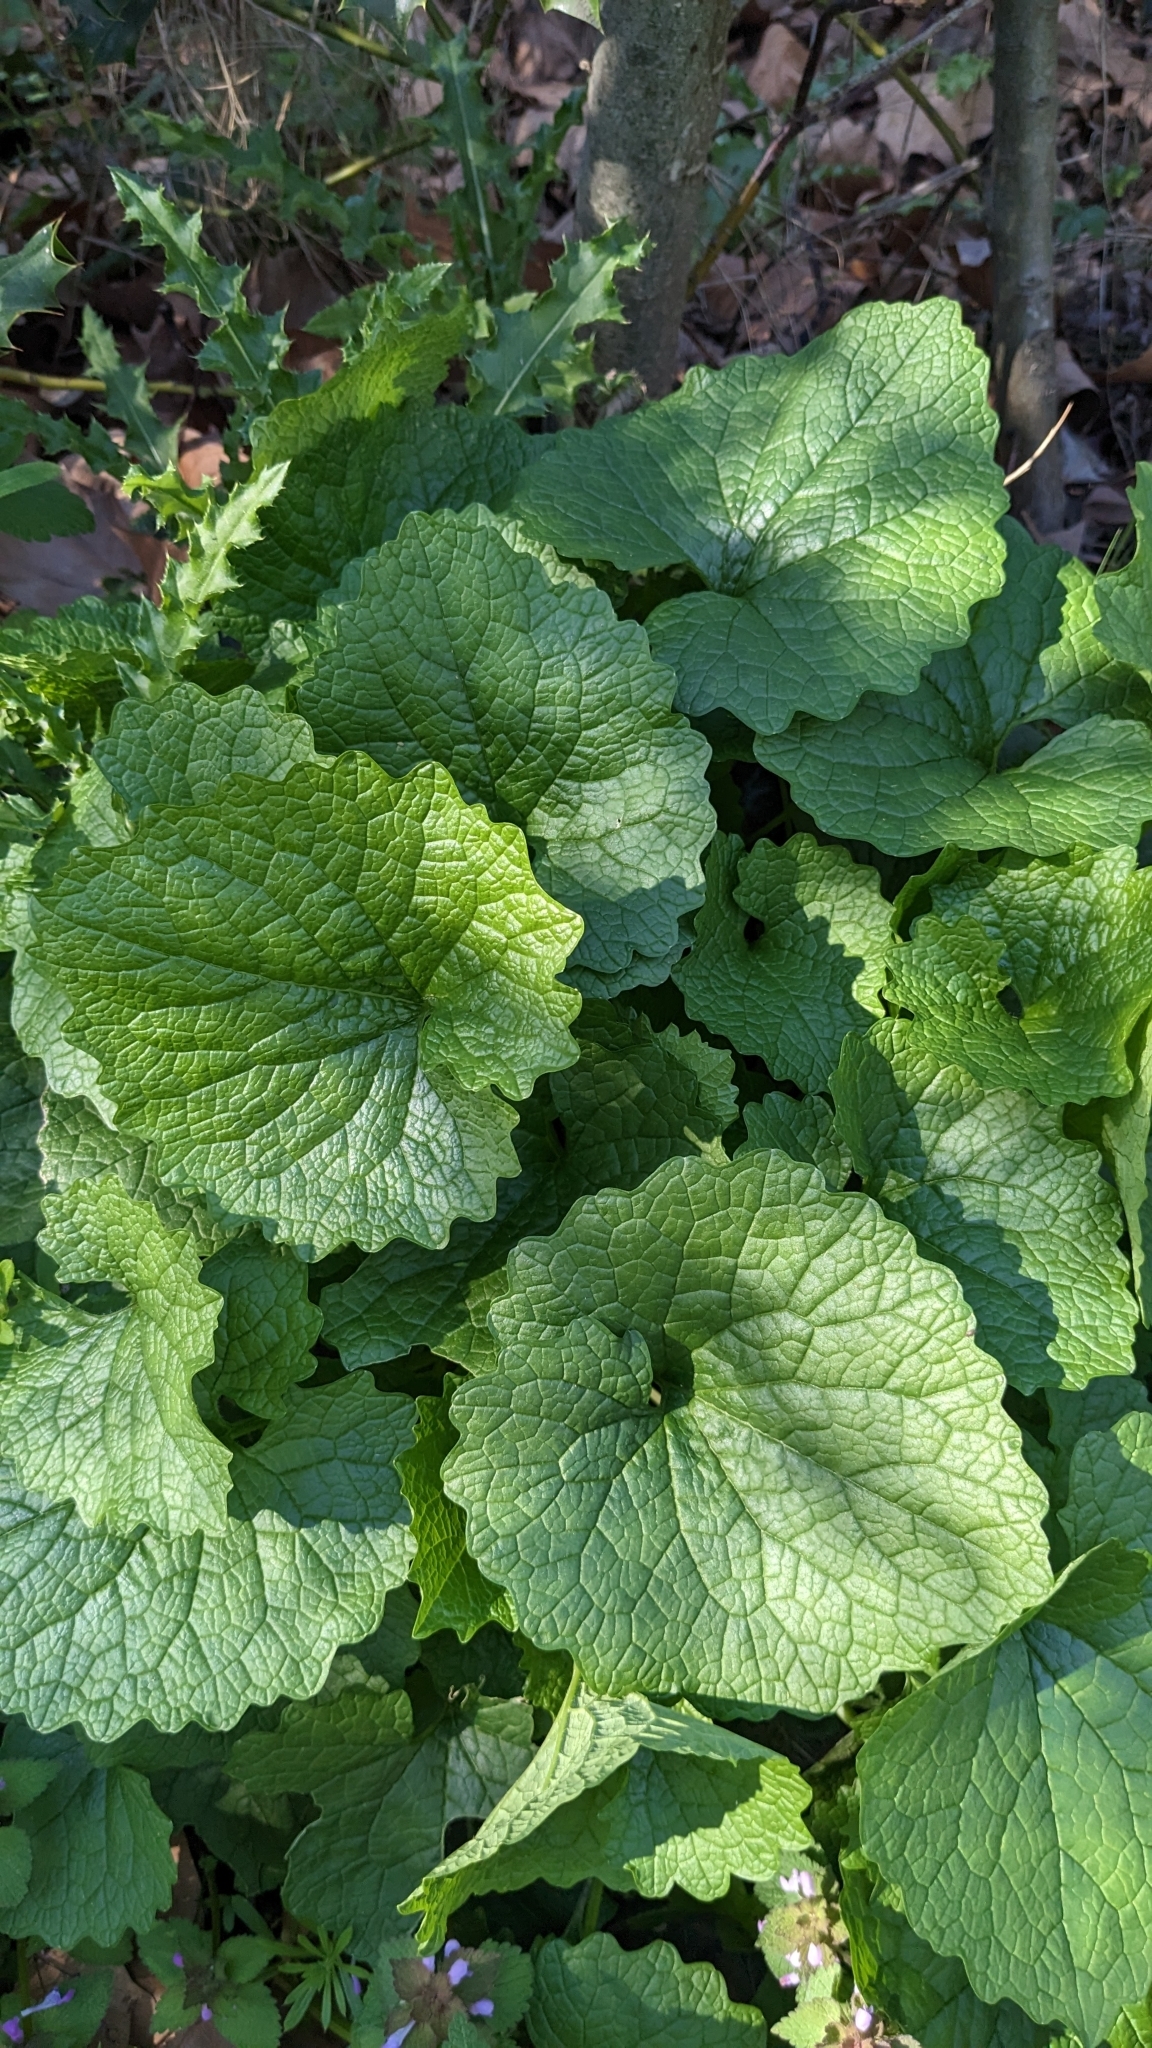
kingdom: Plantae
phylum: Tracheophyta
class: Magnoliopsida
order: Brassicales
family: Brassicaceae
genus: Alliaria
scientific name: Alliaria petiolata
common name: Garlic mustard
